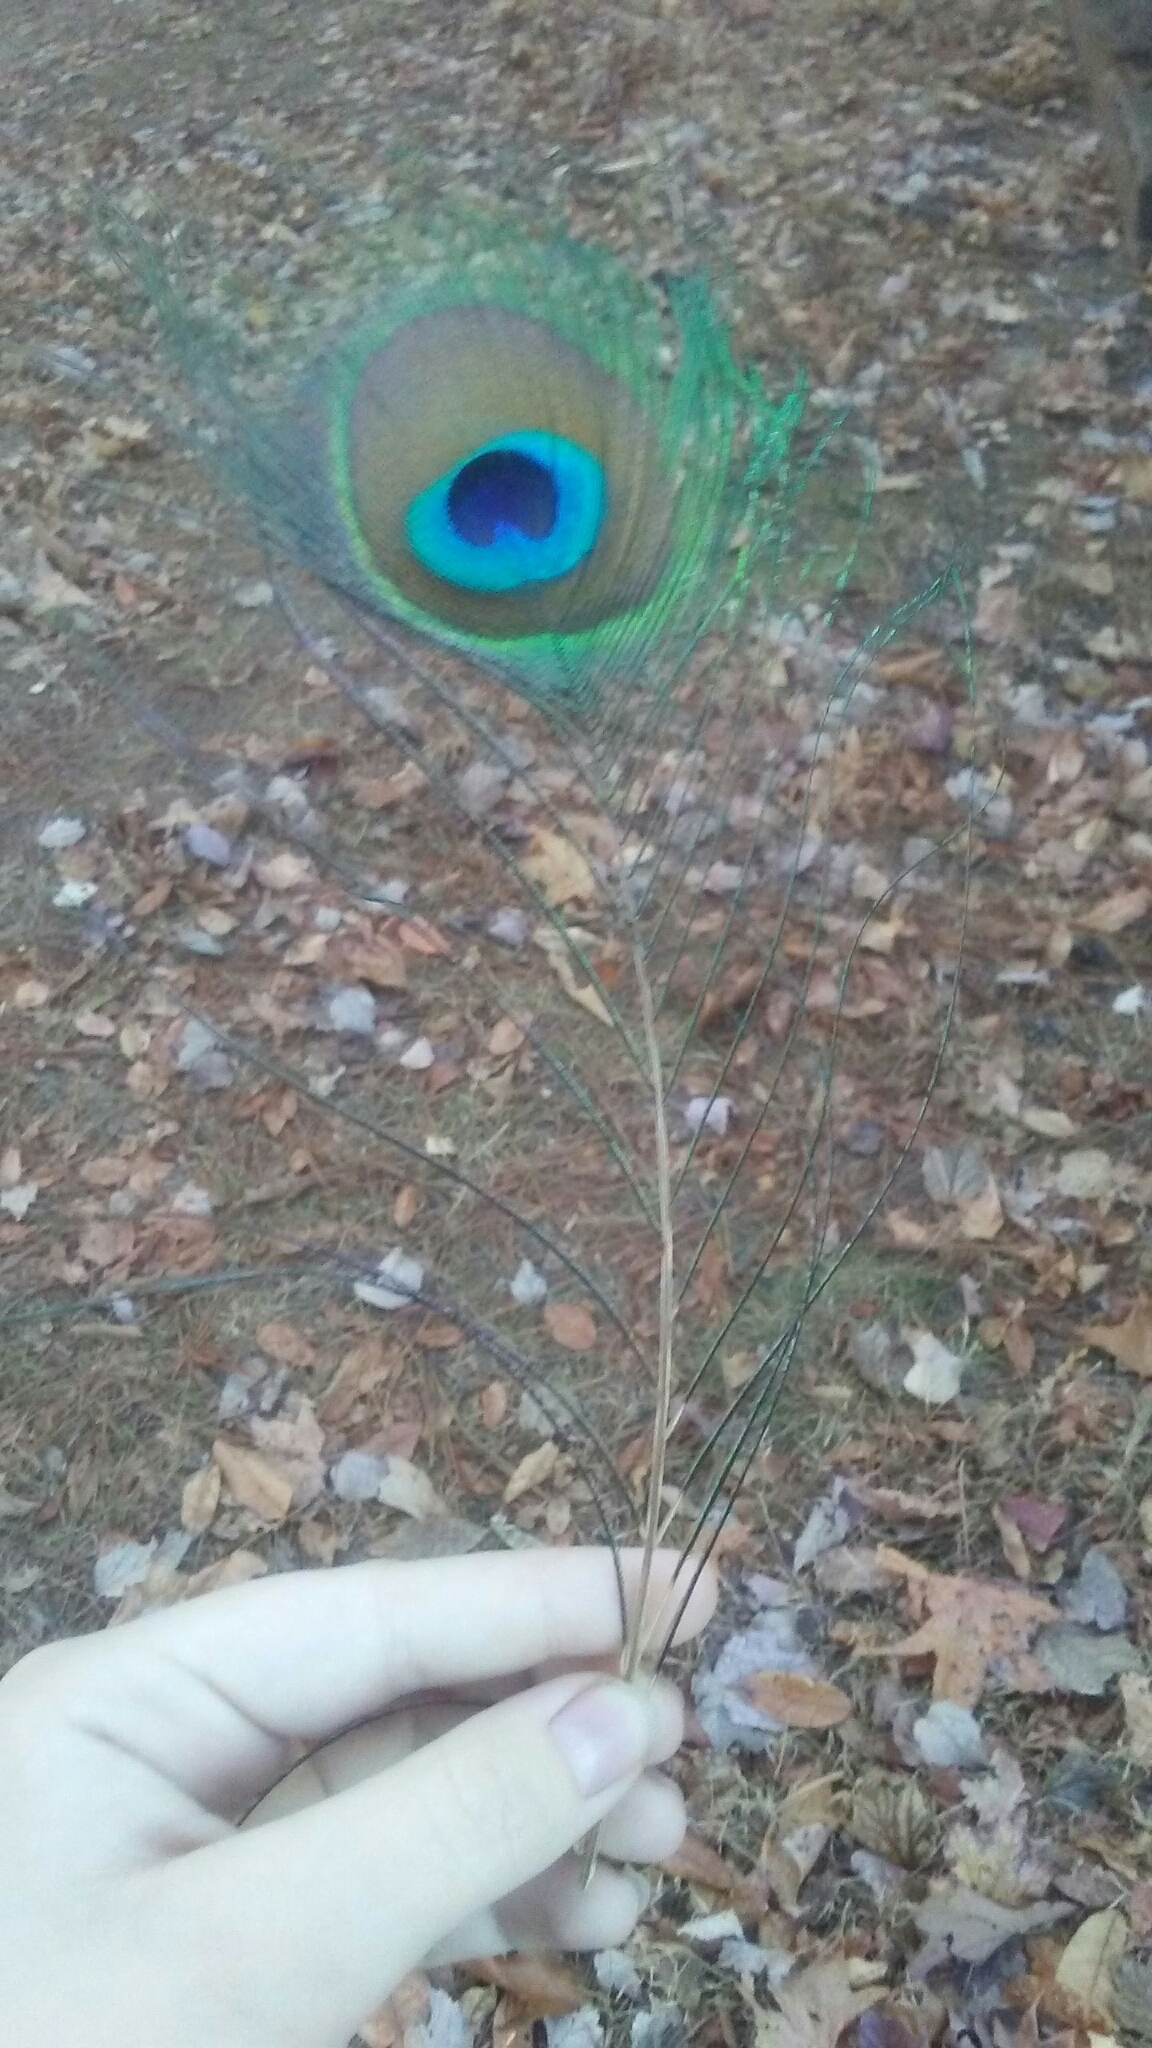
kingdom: Animalia
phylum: Chordata
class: Aves
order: Galliformes
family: Phasianidae
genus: Pavo
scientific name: Pavo cristatus
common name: Indian peafowl
